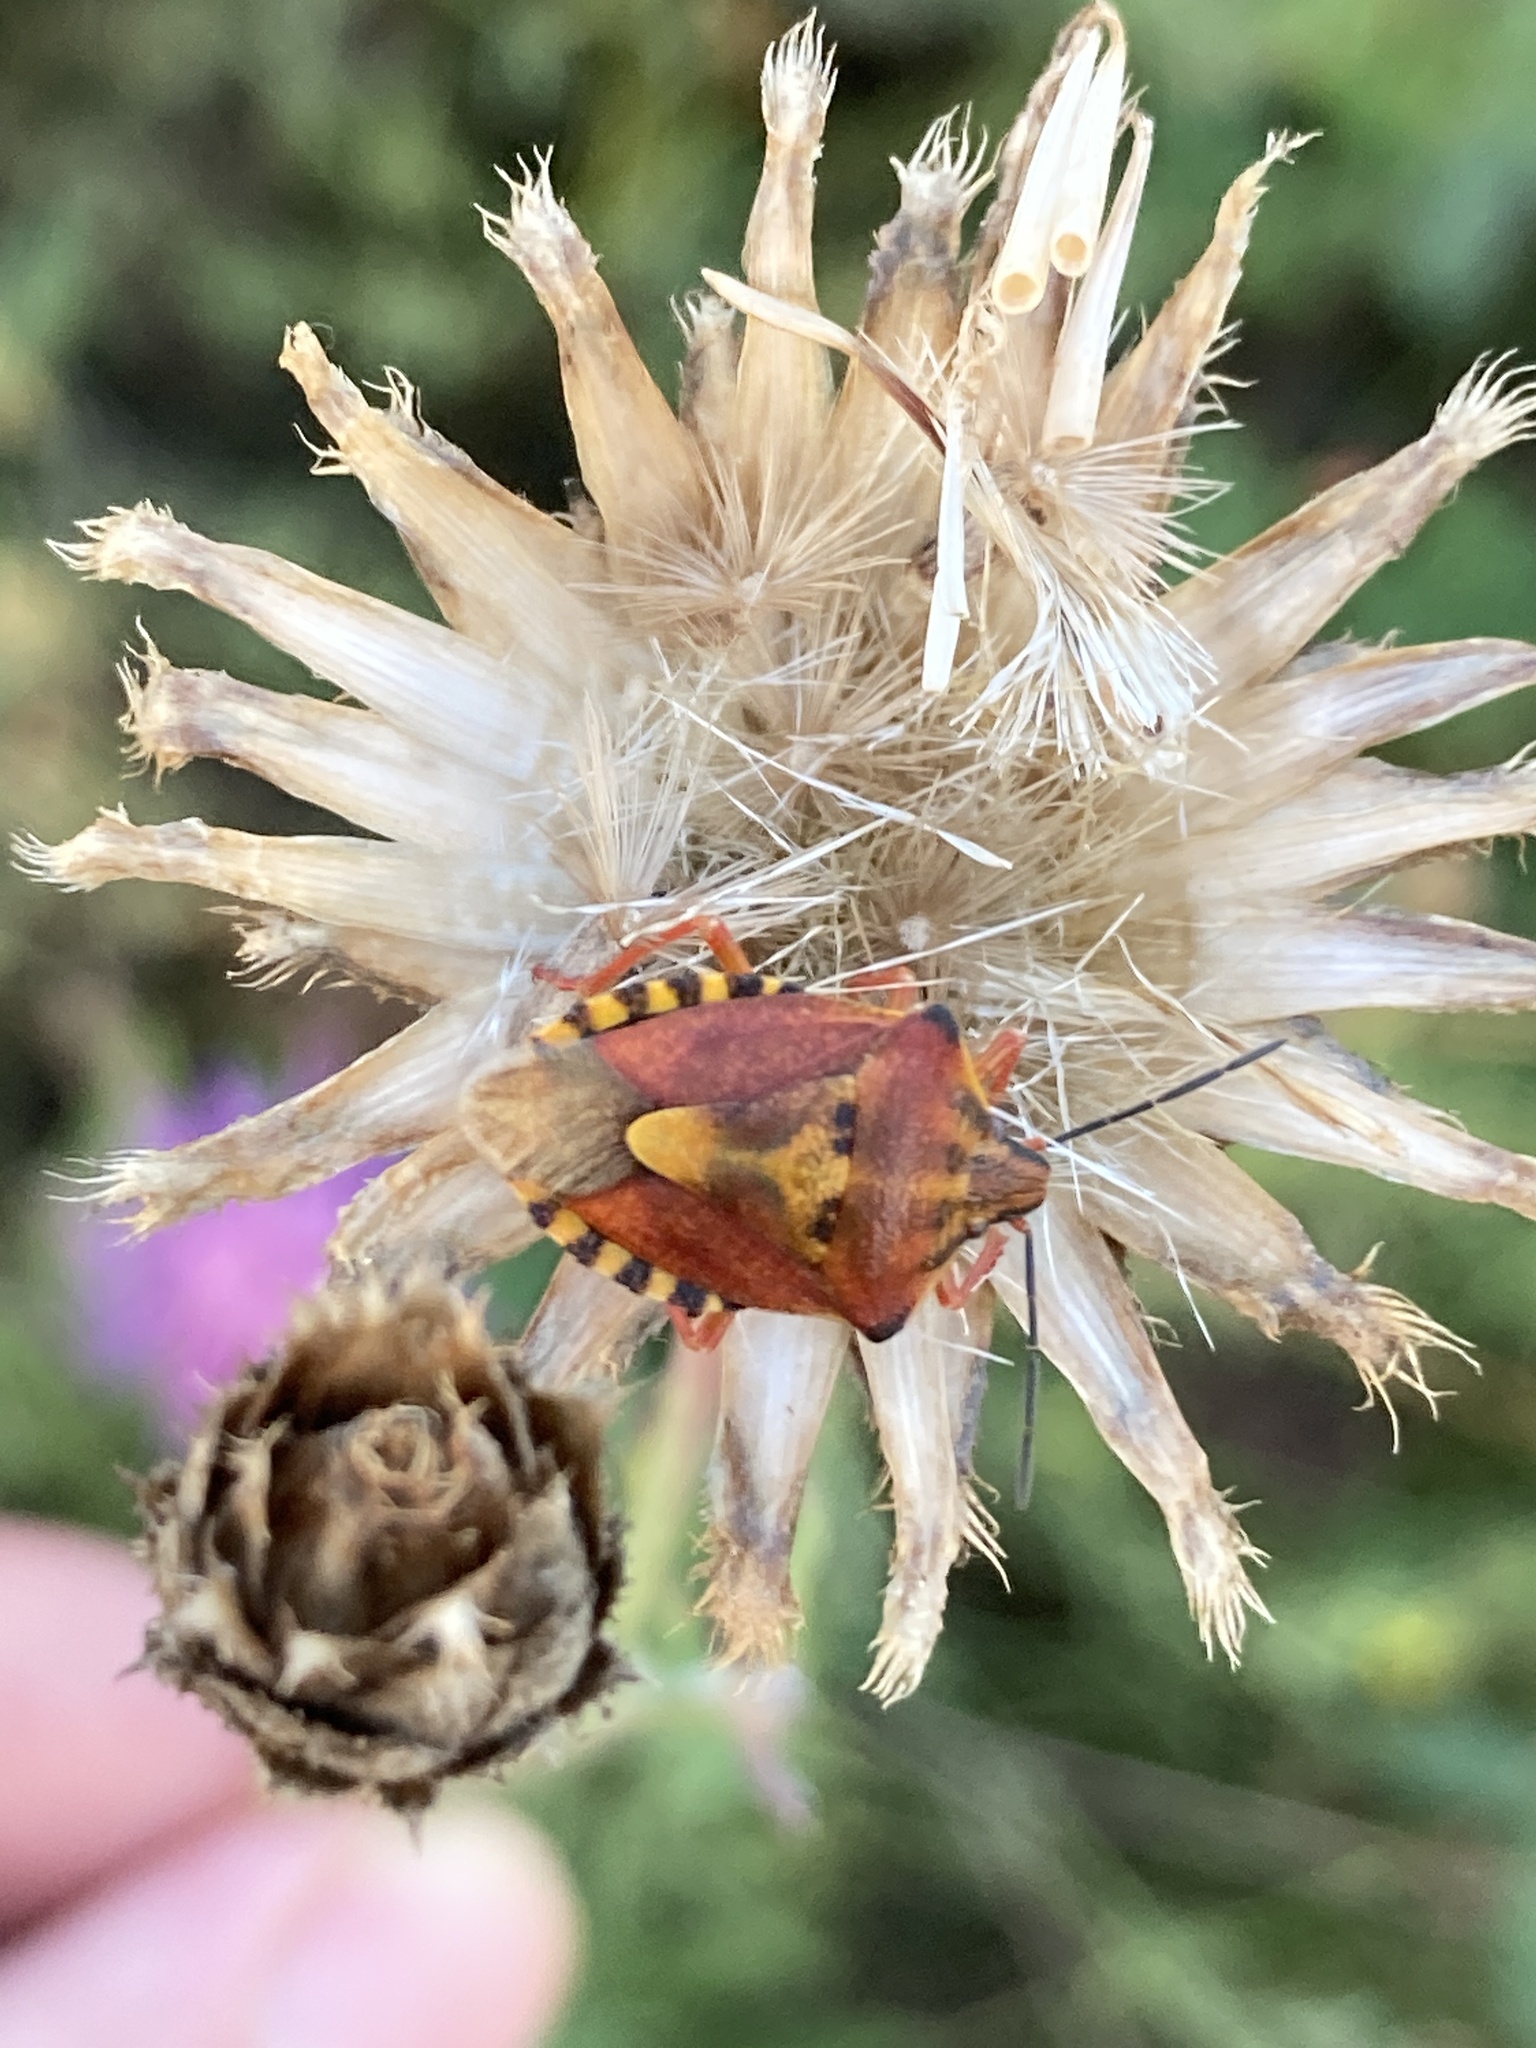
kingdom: Animalia
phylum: Arthropoda
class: Insecta
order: Hemiptera
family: Pentatomidae
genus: Carpocoris
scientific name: Carpocoris purpureipennis
